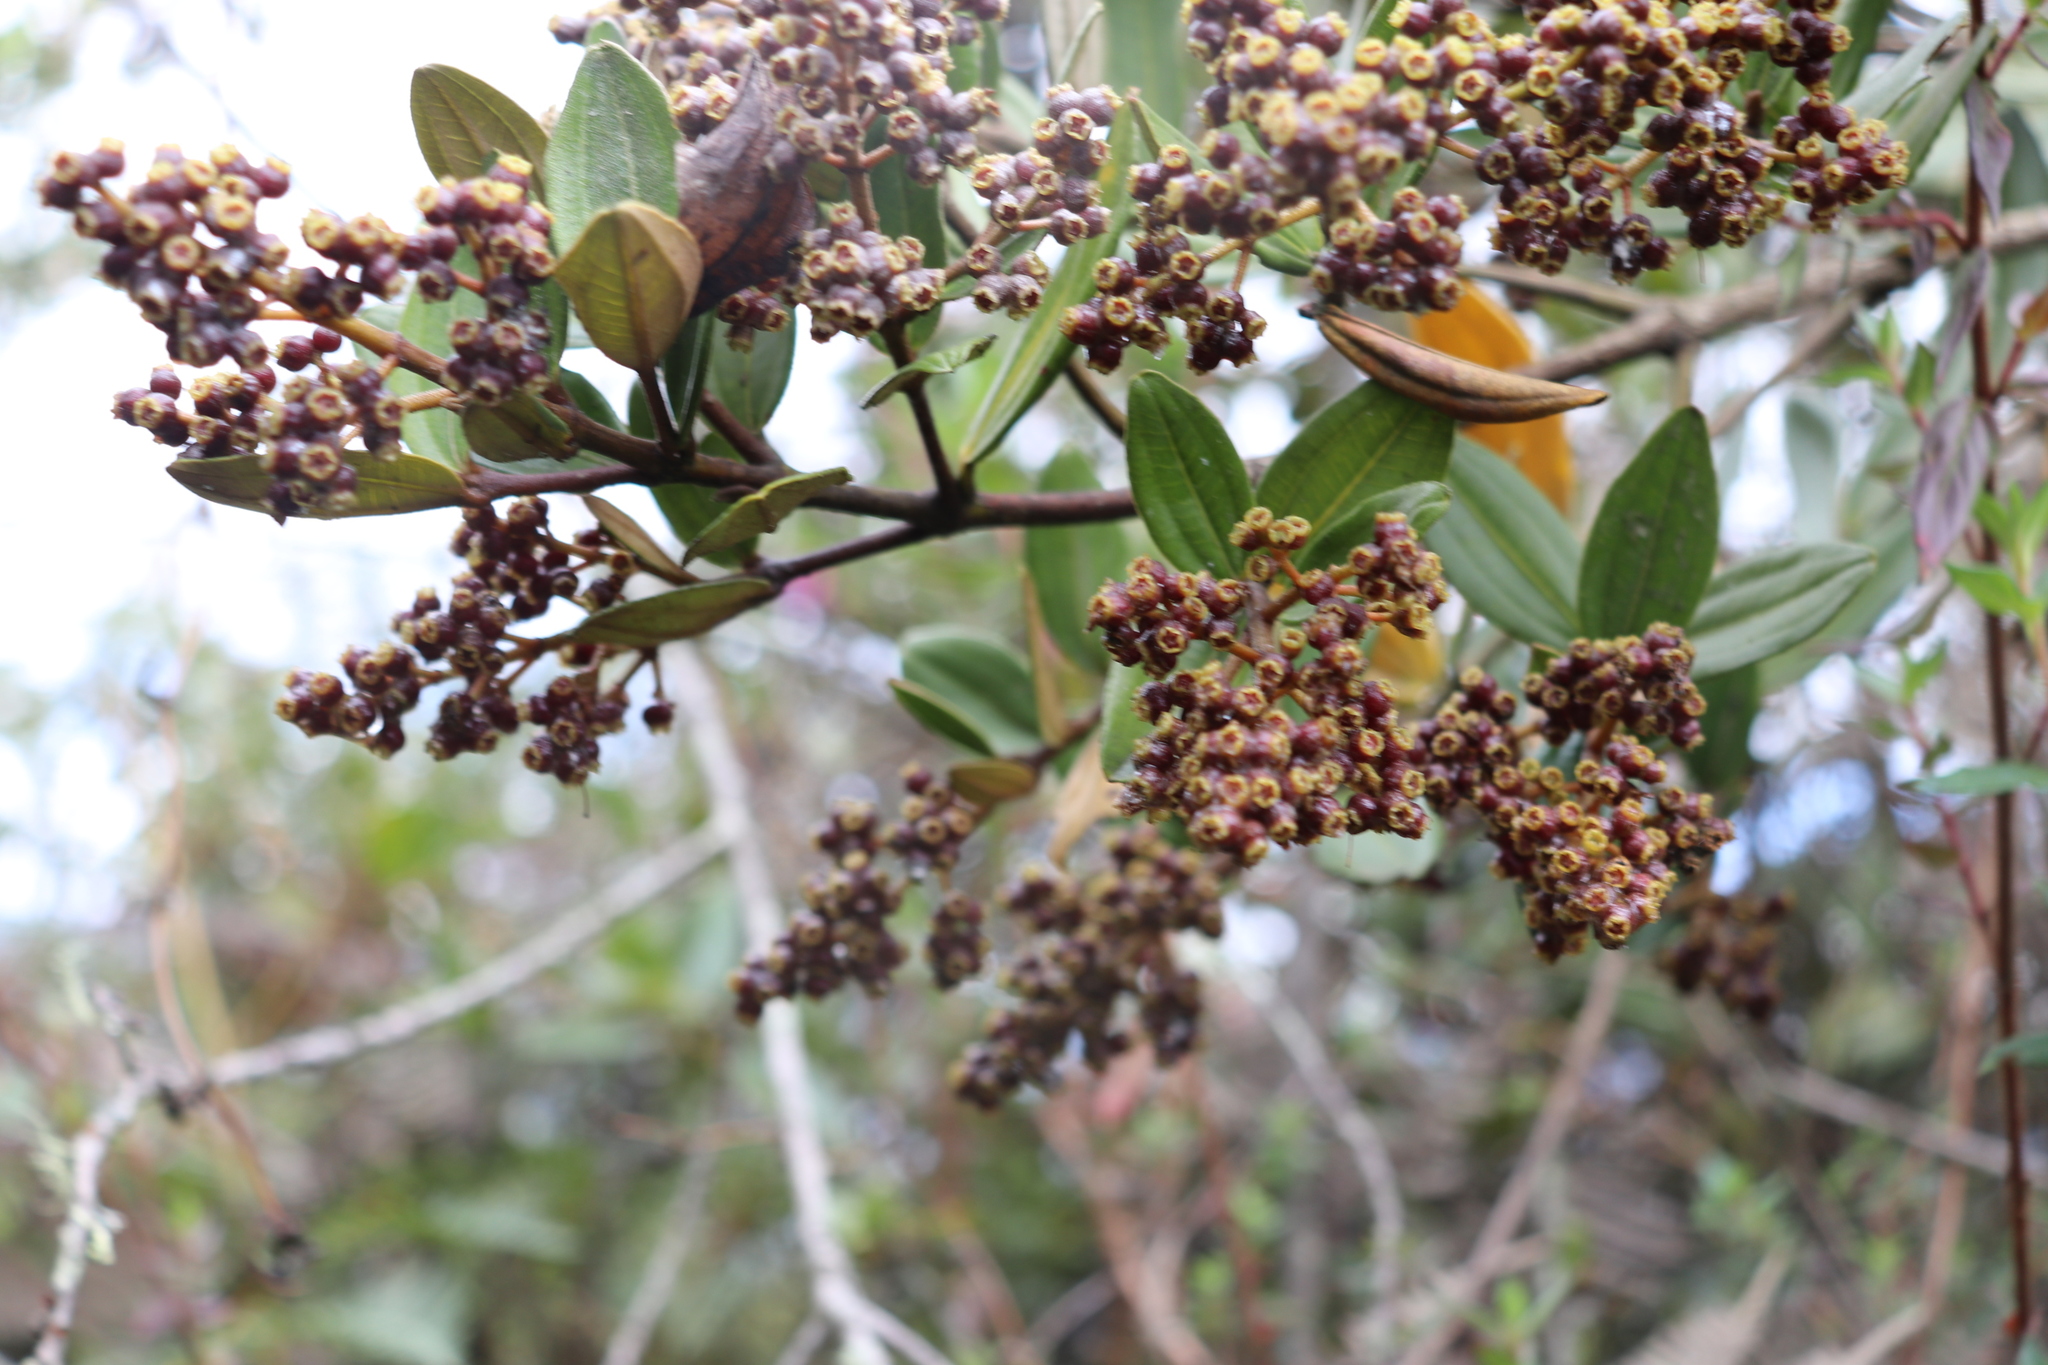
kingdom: Plantae
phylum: Tracheophyta
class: Magnoliopsida
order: Myrtales
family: Melastomataceae
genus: Miconia
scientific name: Miconia squamulosa
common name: Squamulose maya
